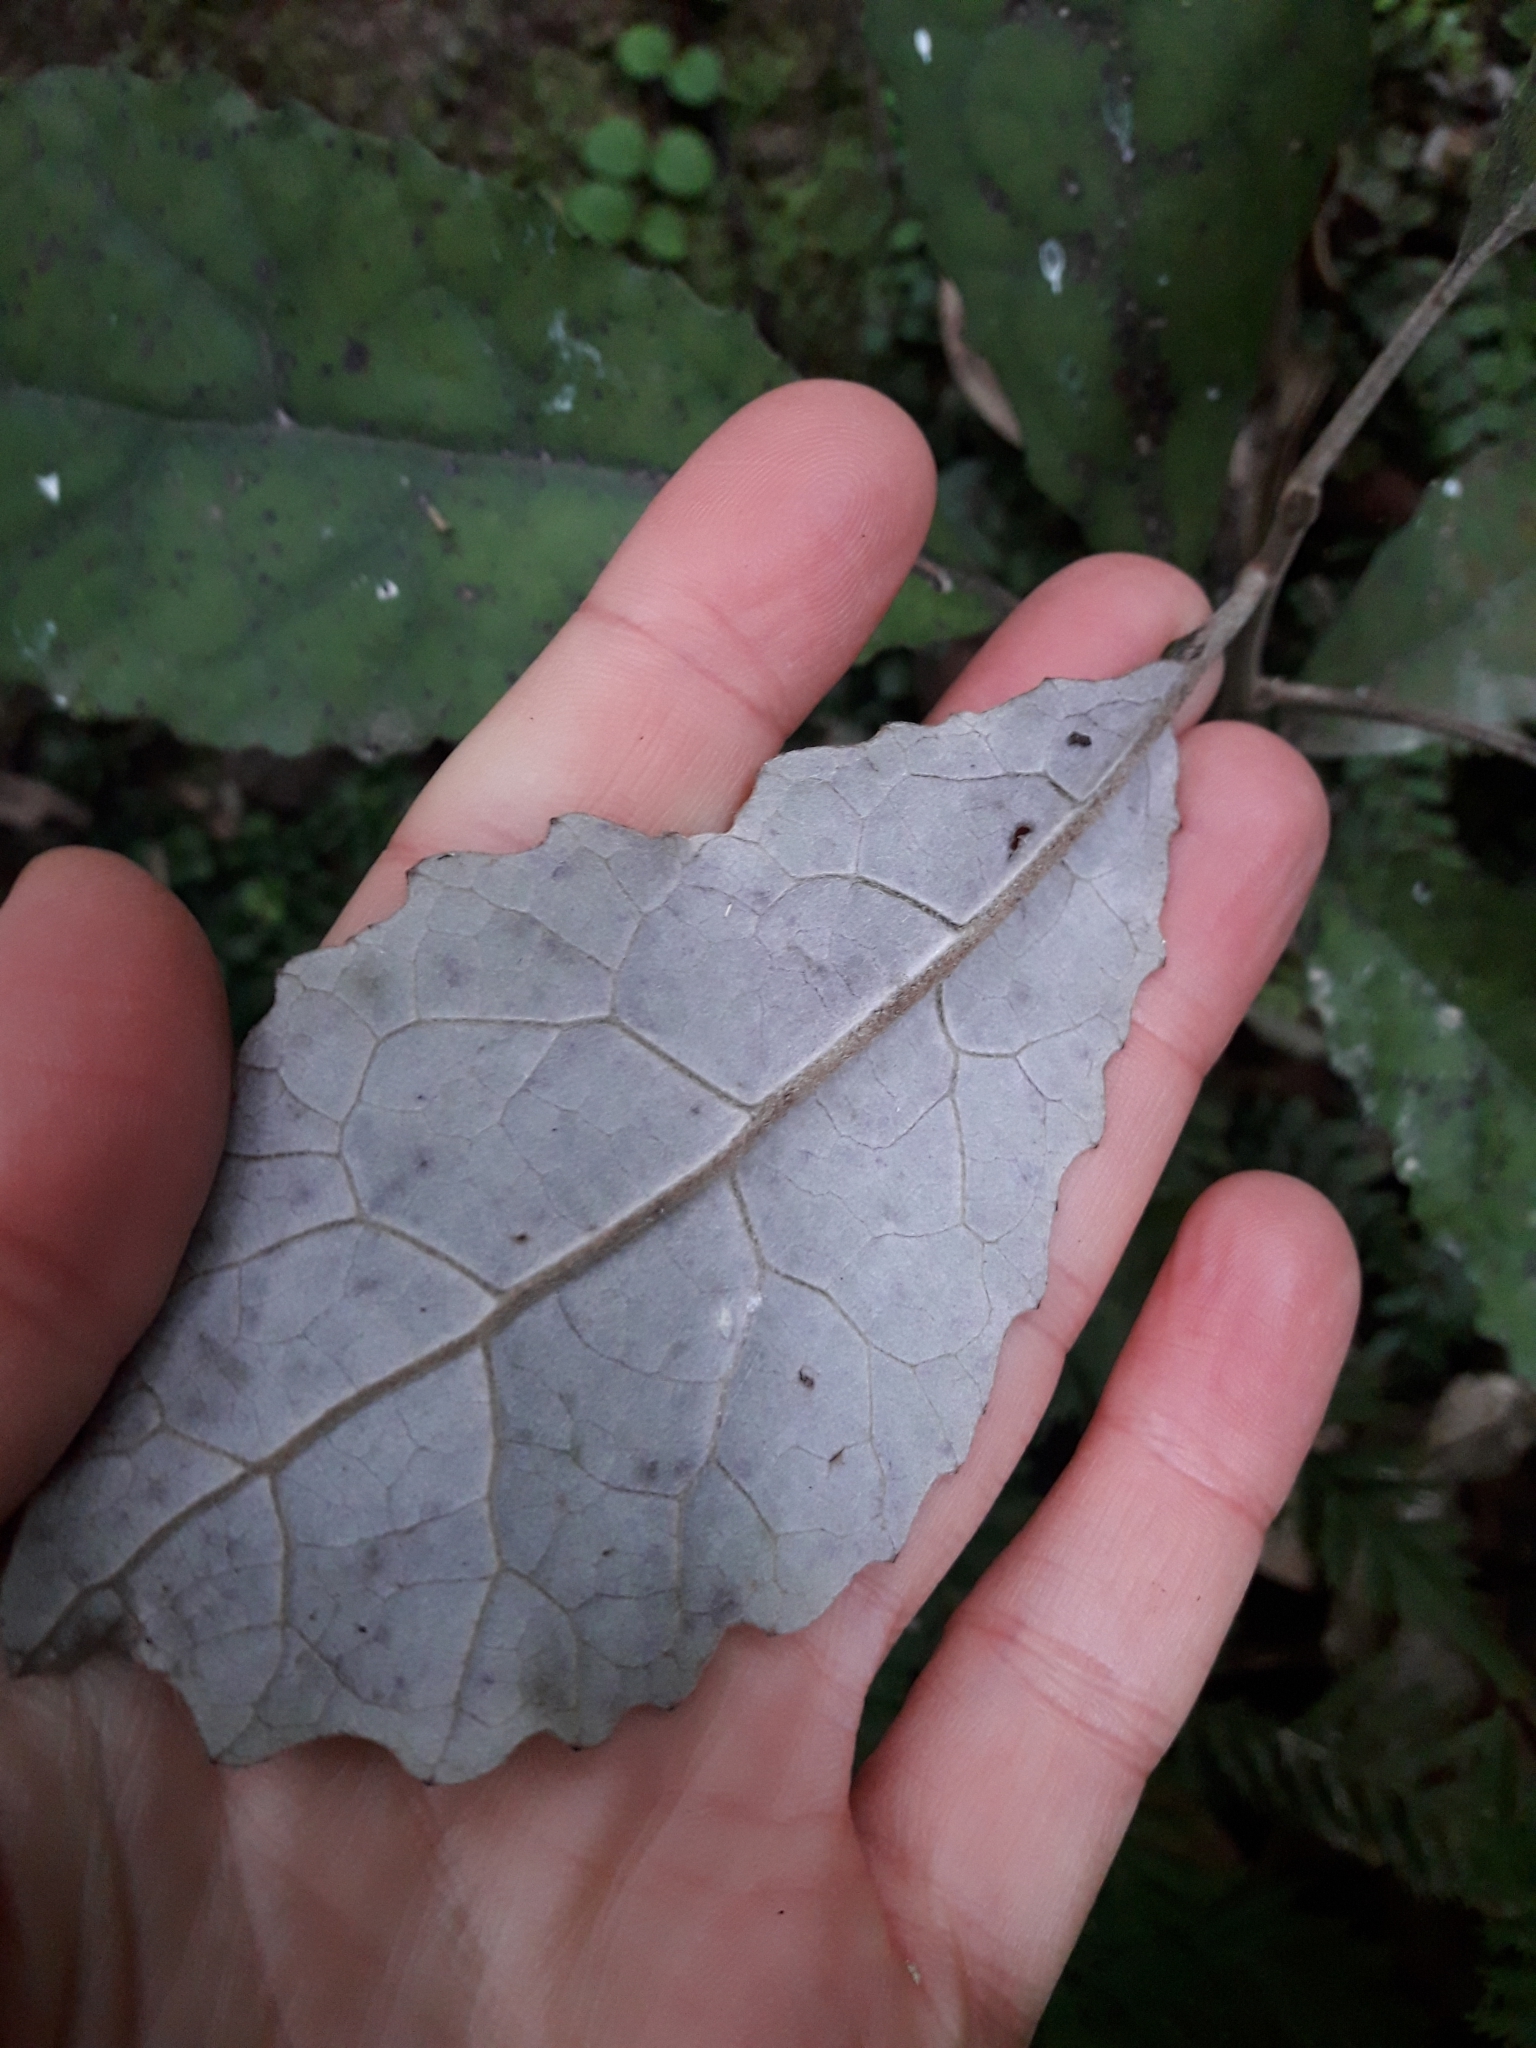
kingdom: Plantae
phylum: Tracheophyta
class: Magnoliopsida
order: Asterales
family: Asteraceae
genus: Olearia
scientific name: Olearia rani
